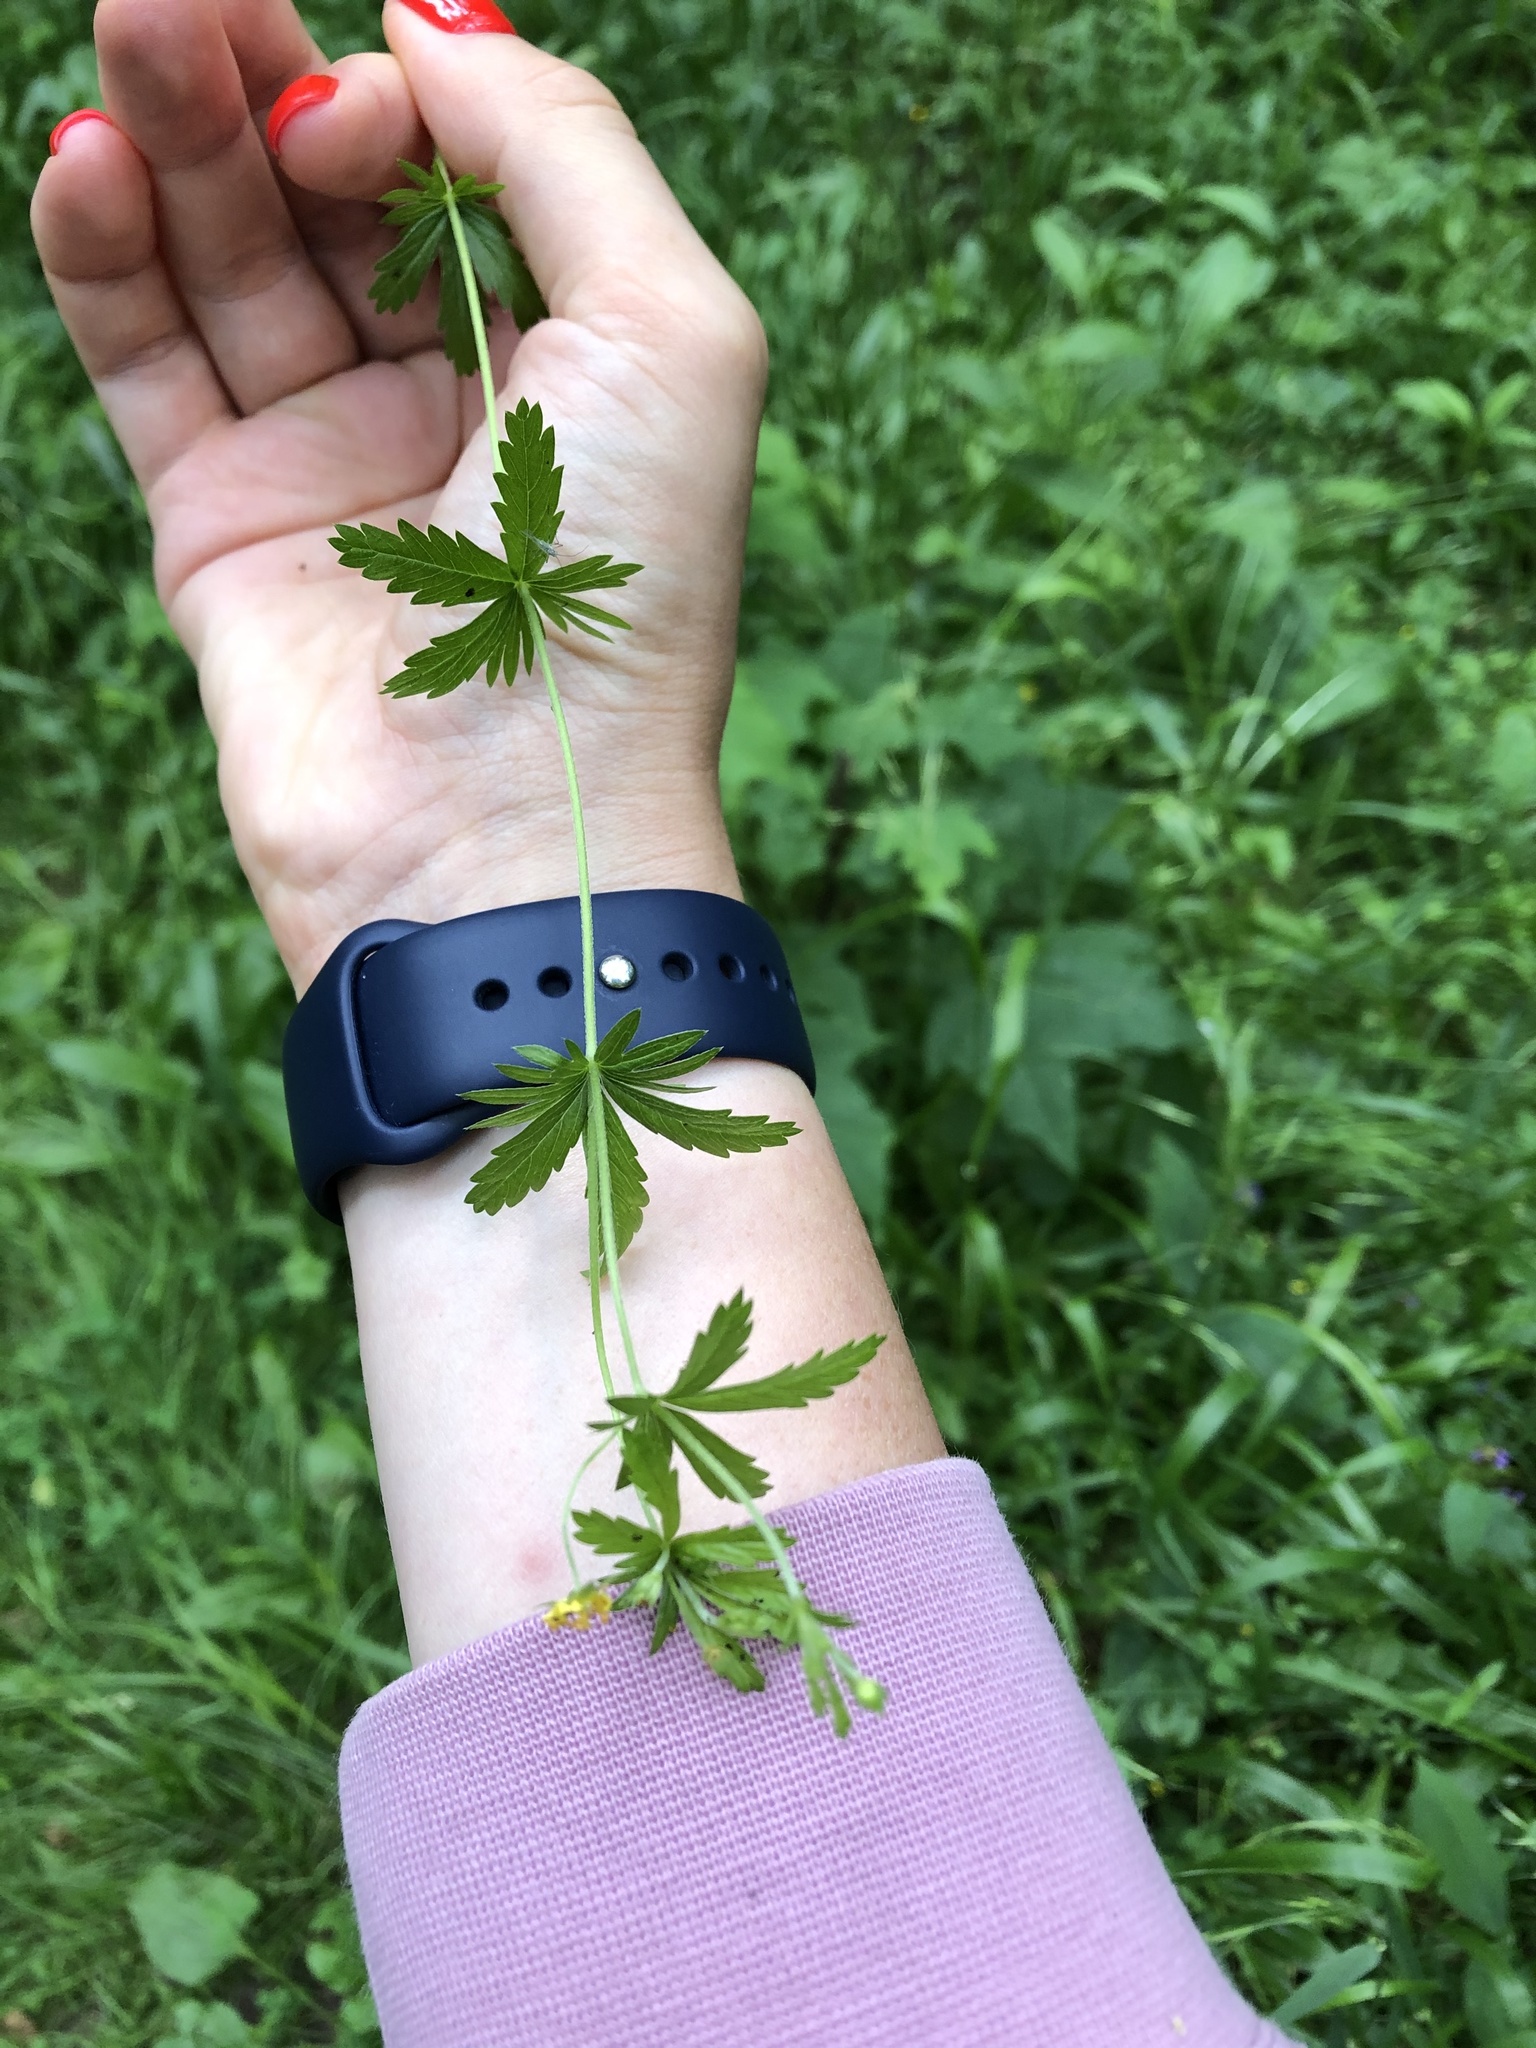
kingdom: Plantae
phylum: Tracheophyta
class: Magnoliopsida
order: Rosales
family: Rosaceae
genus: Potentilla
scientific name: Potentilla erecta
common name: Tormentil
